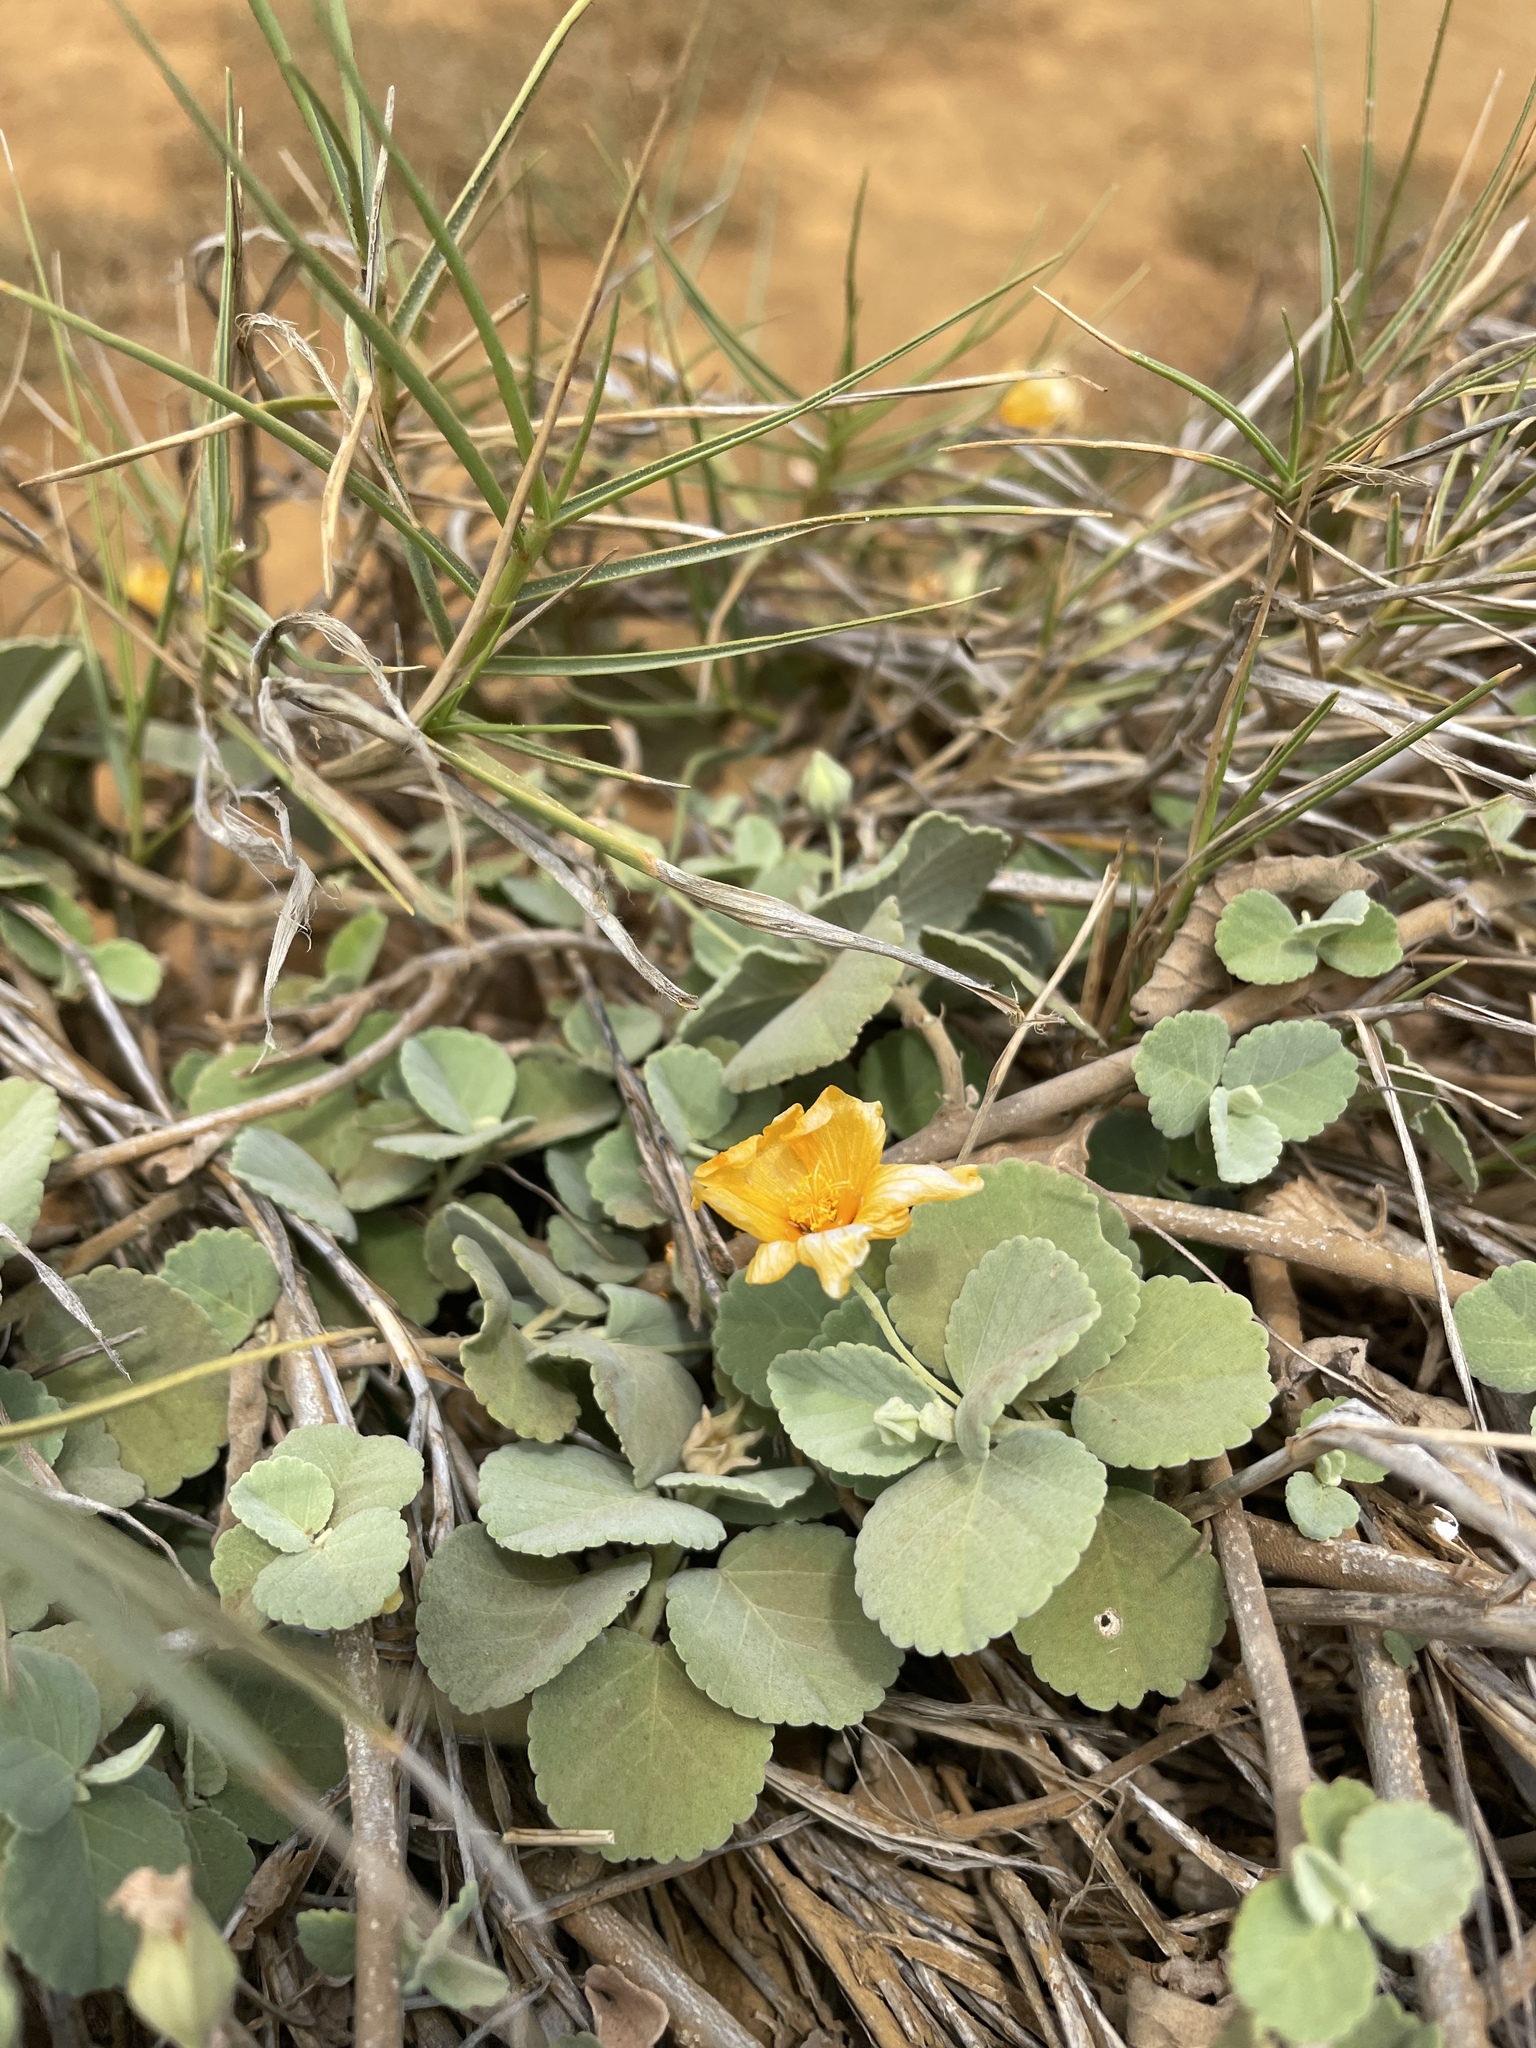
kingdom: Plantae
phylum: Tracheophyta
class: Magnoliopsida
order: Malvales
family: Malvaceae
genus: Sida
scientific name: Sida fallax
